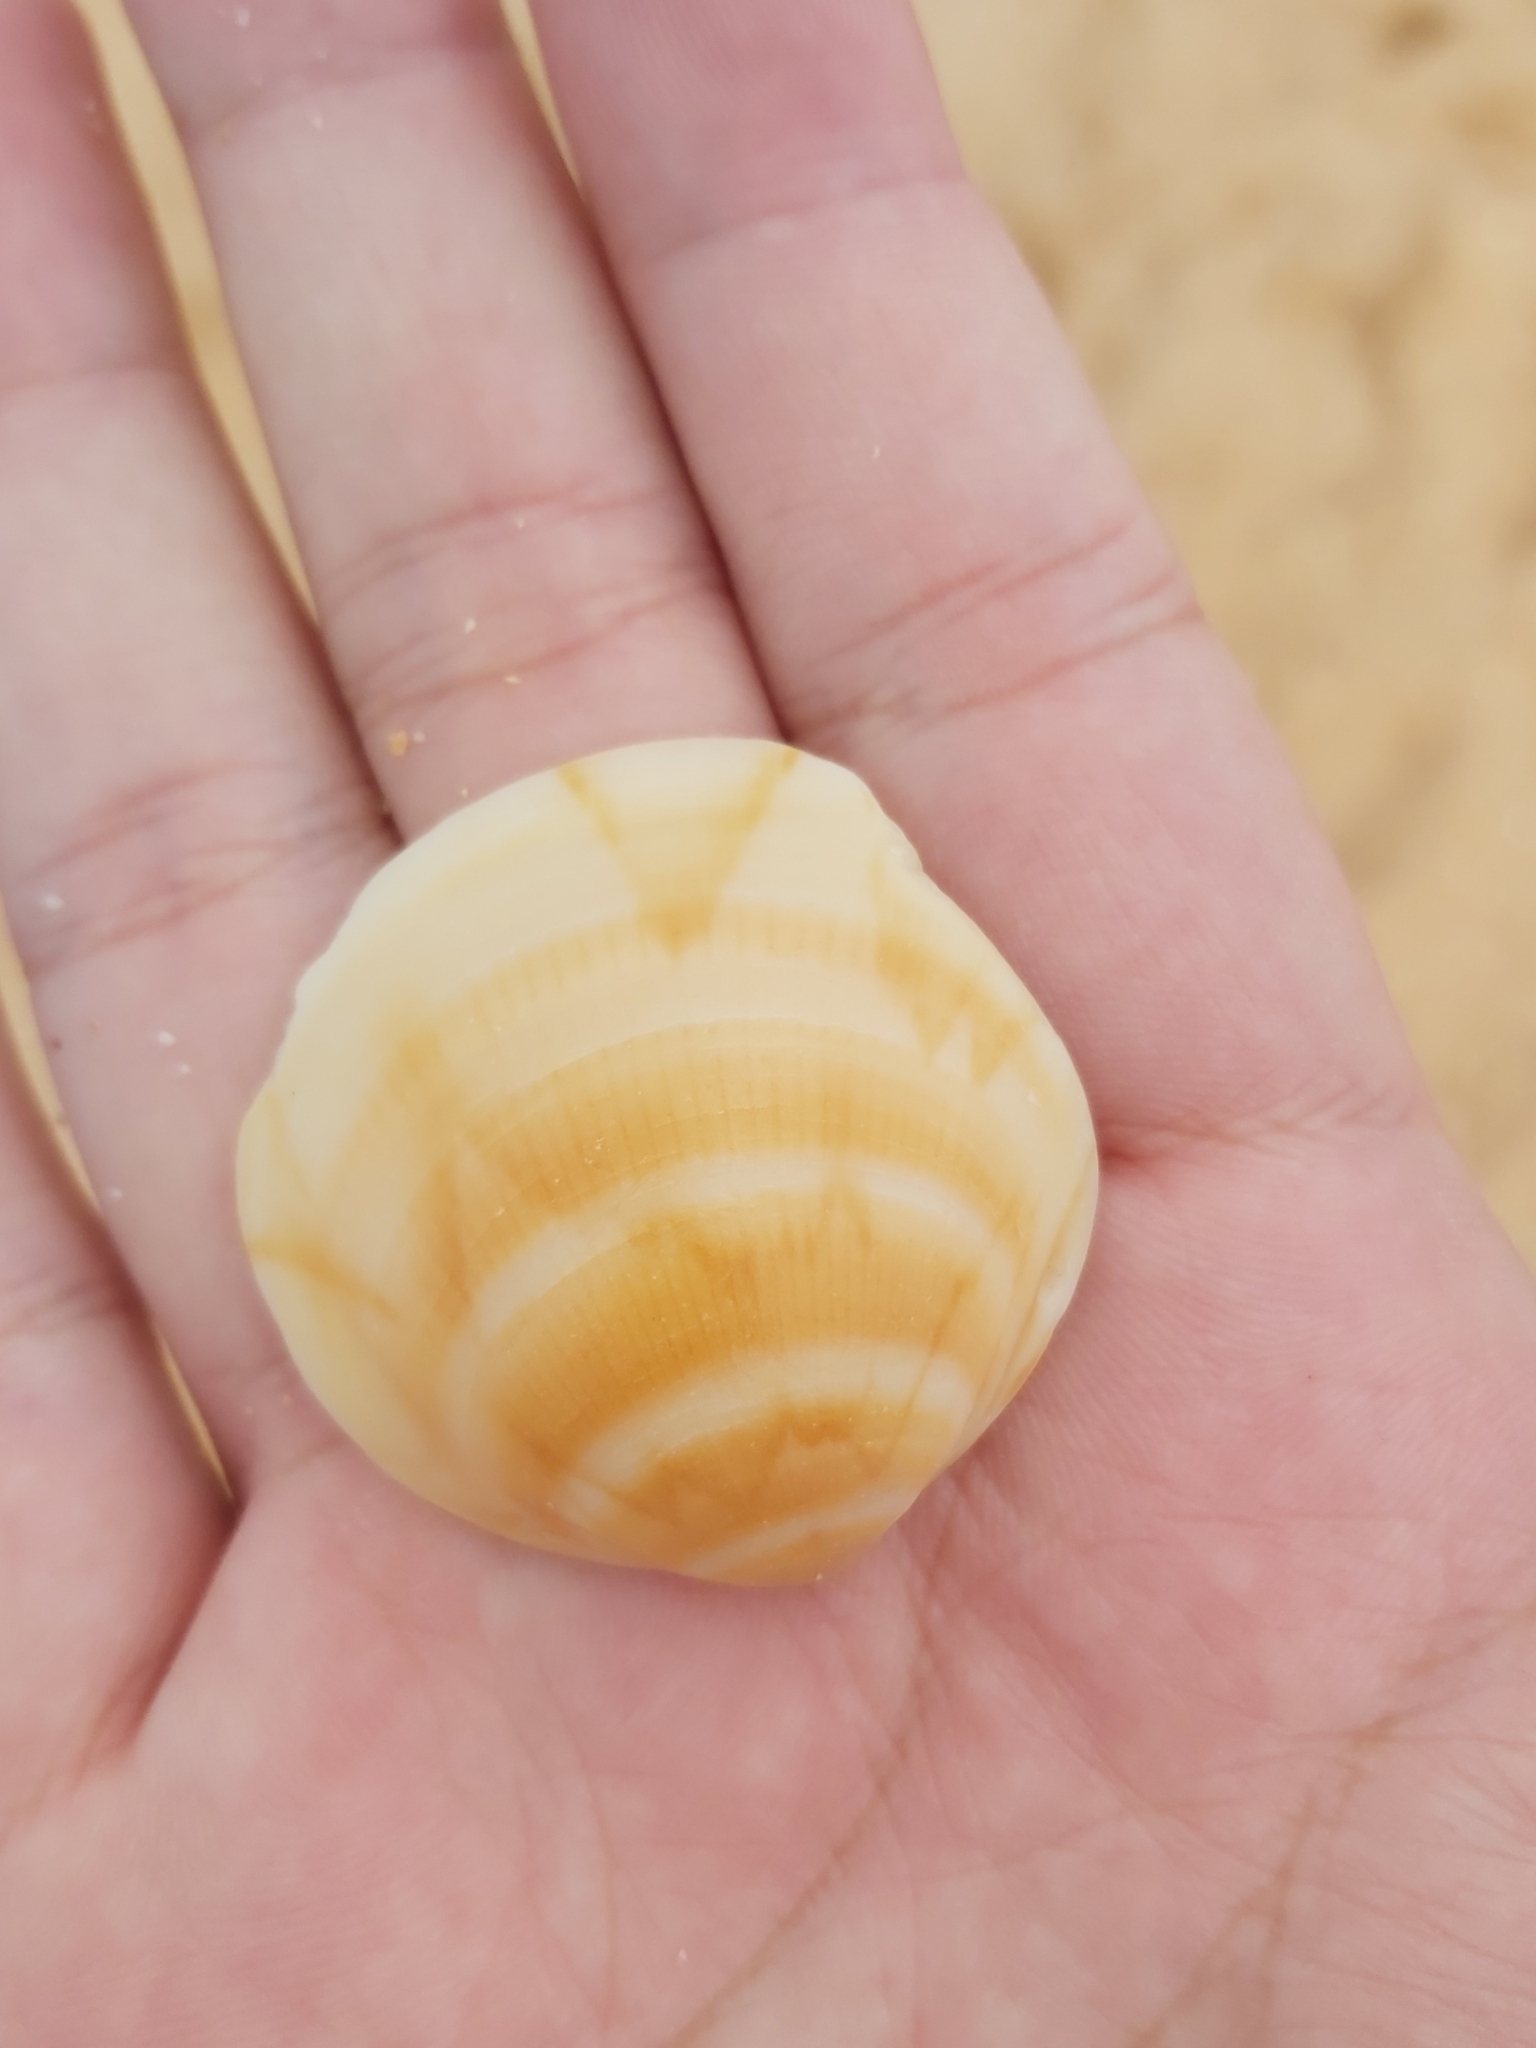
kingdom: Animalia
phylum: Mollusca
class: Bivalvia
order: Arcida
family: Glycymerididae
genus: Glycymeris
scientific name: Glycymeris grayana
